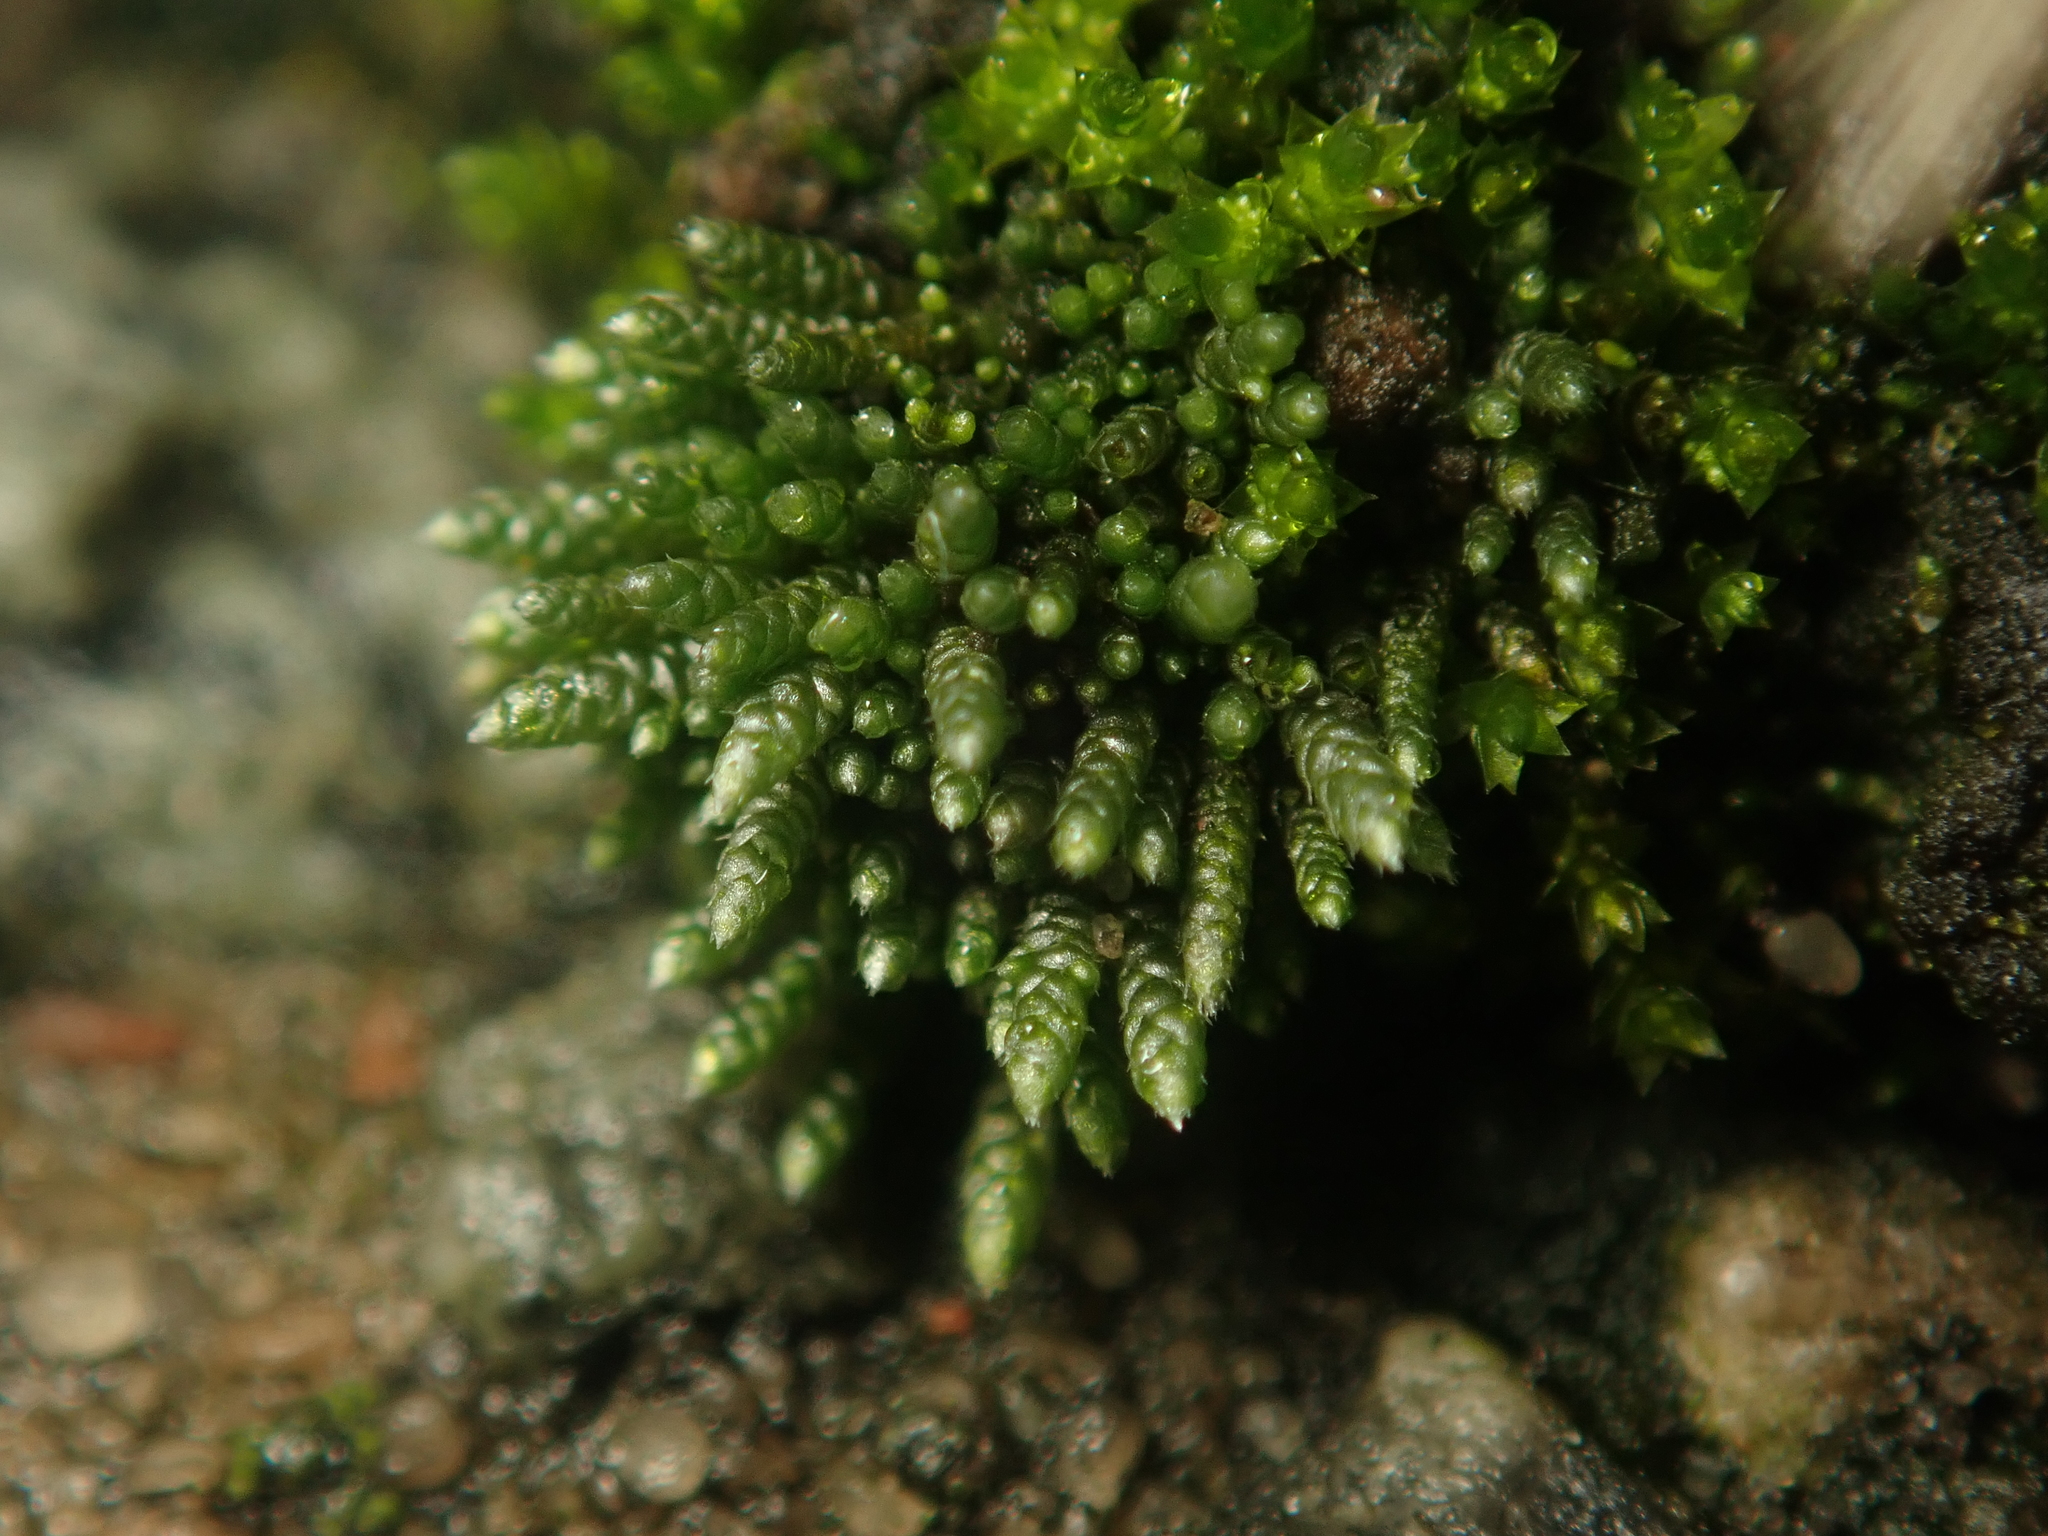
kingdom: Plantae
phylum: Bryophyta
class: Bryopsida
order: Bryales
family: Bryaceae
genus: Bryum
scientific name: Bryum argenteum
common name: Silver-moss
